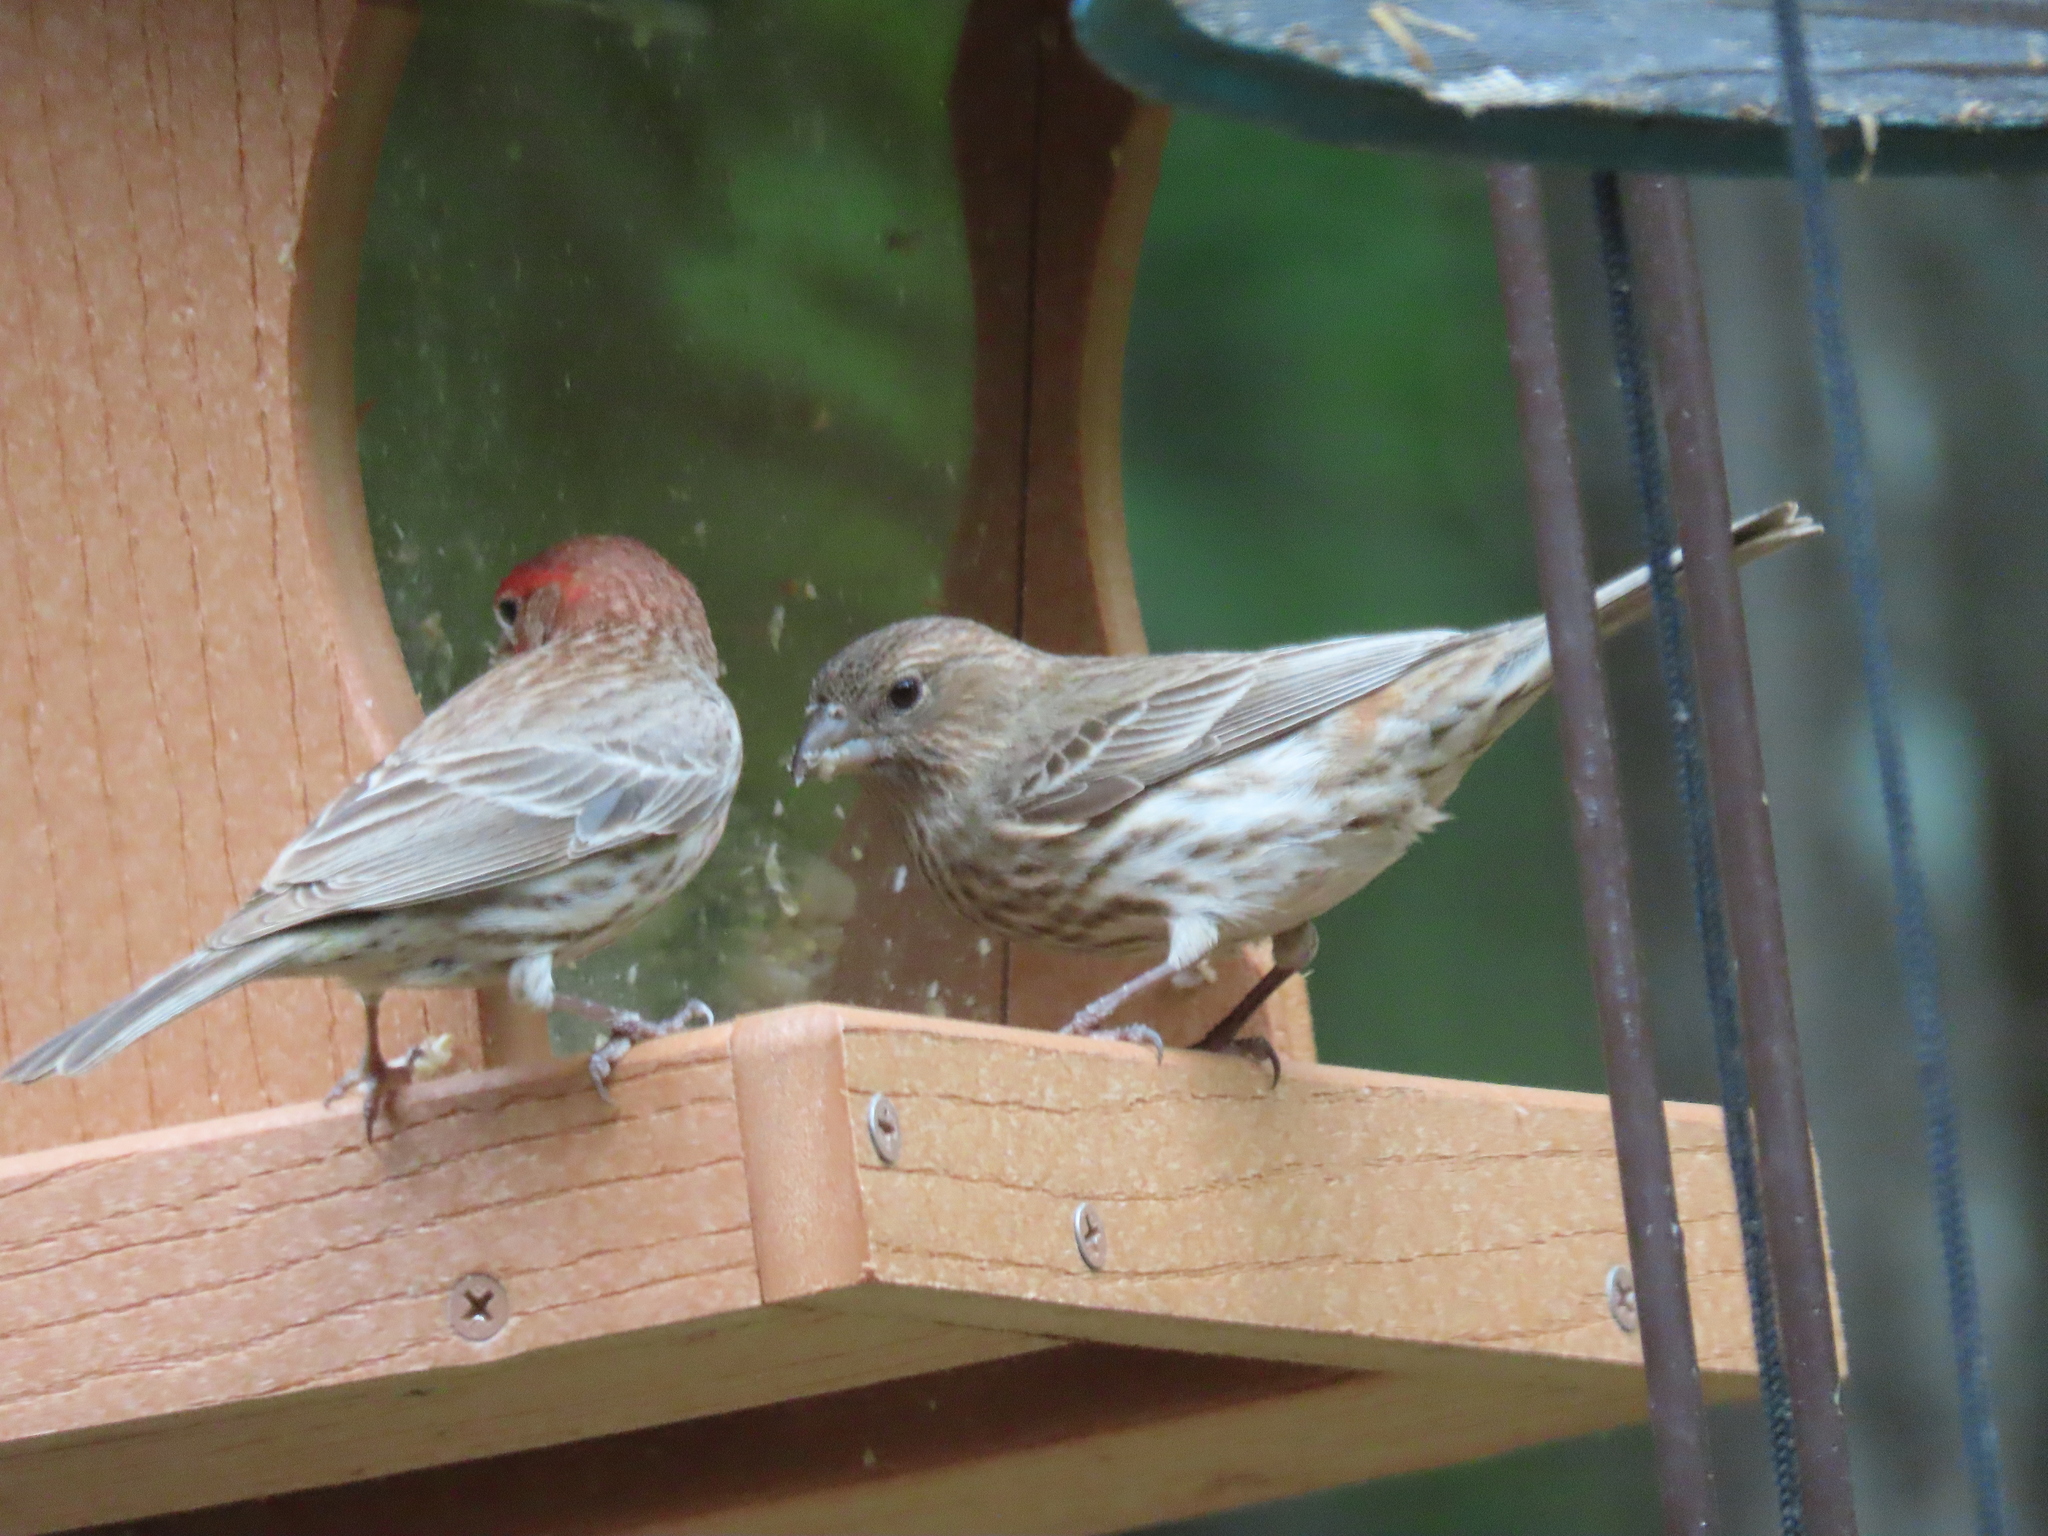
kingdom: Animalia
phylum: Chordata
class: Aves
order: Passeriformes
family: Fringillidae
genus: Haemorhous
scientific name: Haemorhous mexicanus
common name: House finch
